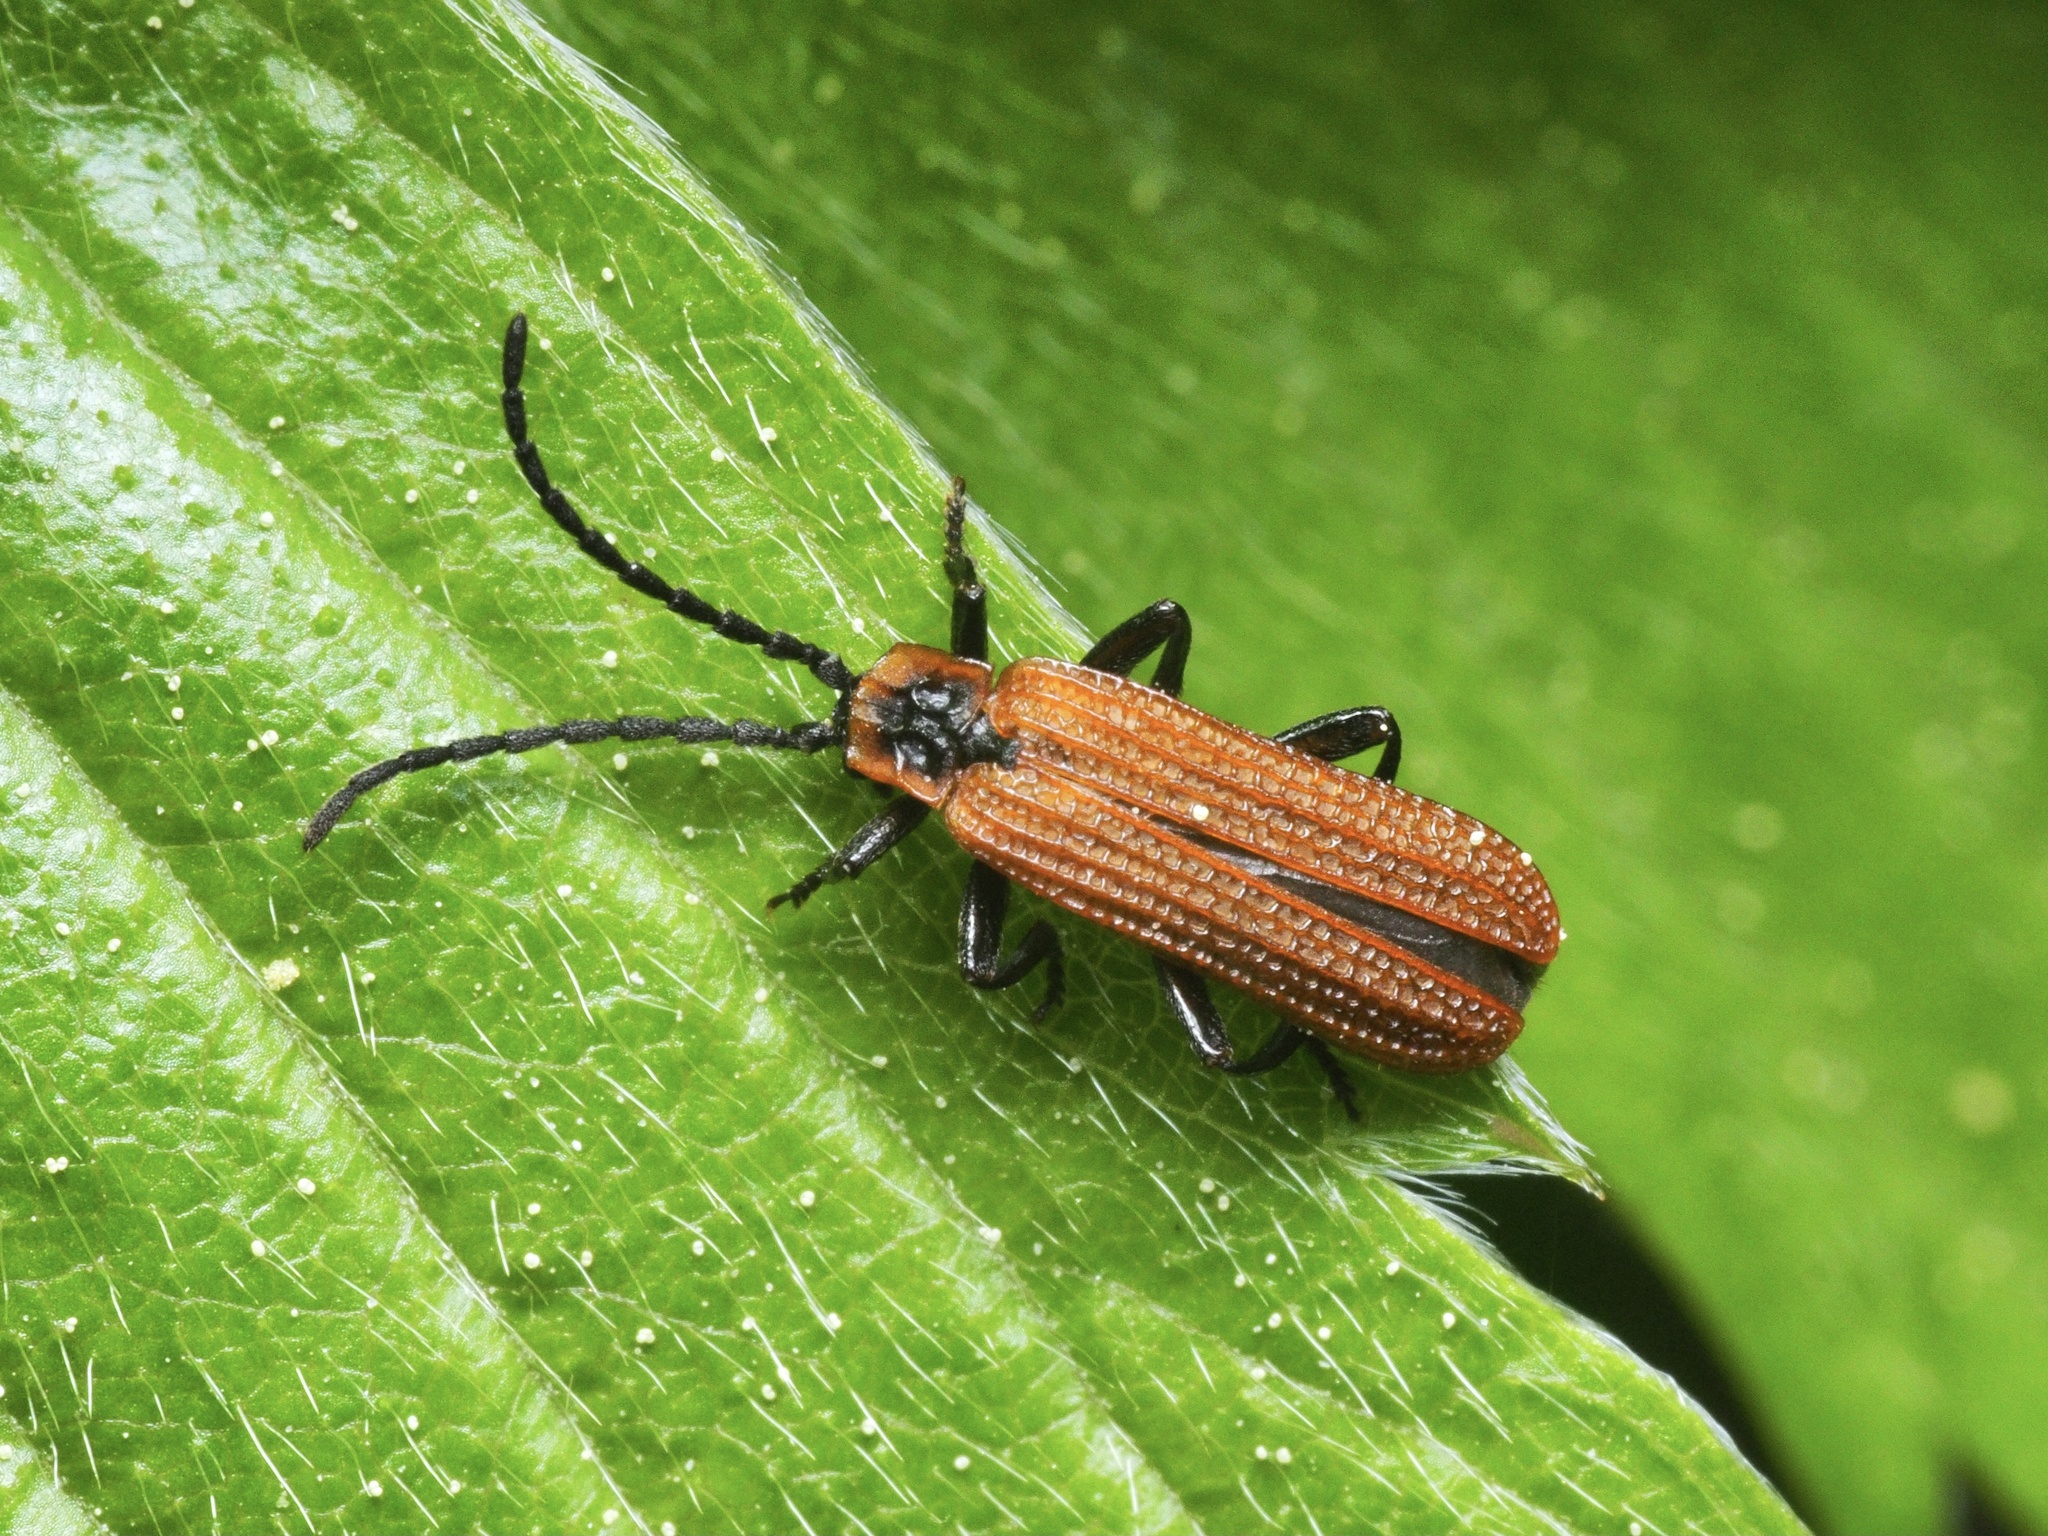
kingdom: Animalia
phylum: Arthropoda
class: Insecta
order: Coleoptera
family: Lycidae
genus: Erotides
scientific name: Erotides cosnardi
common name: Cosnard's net-winged beetle
